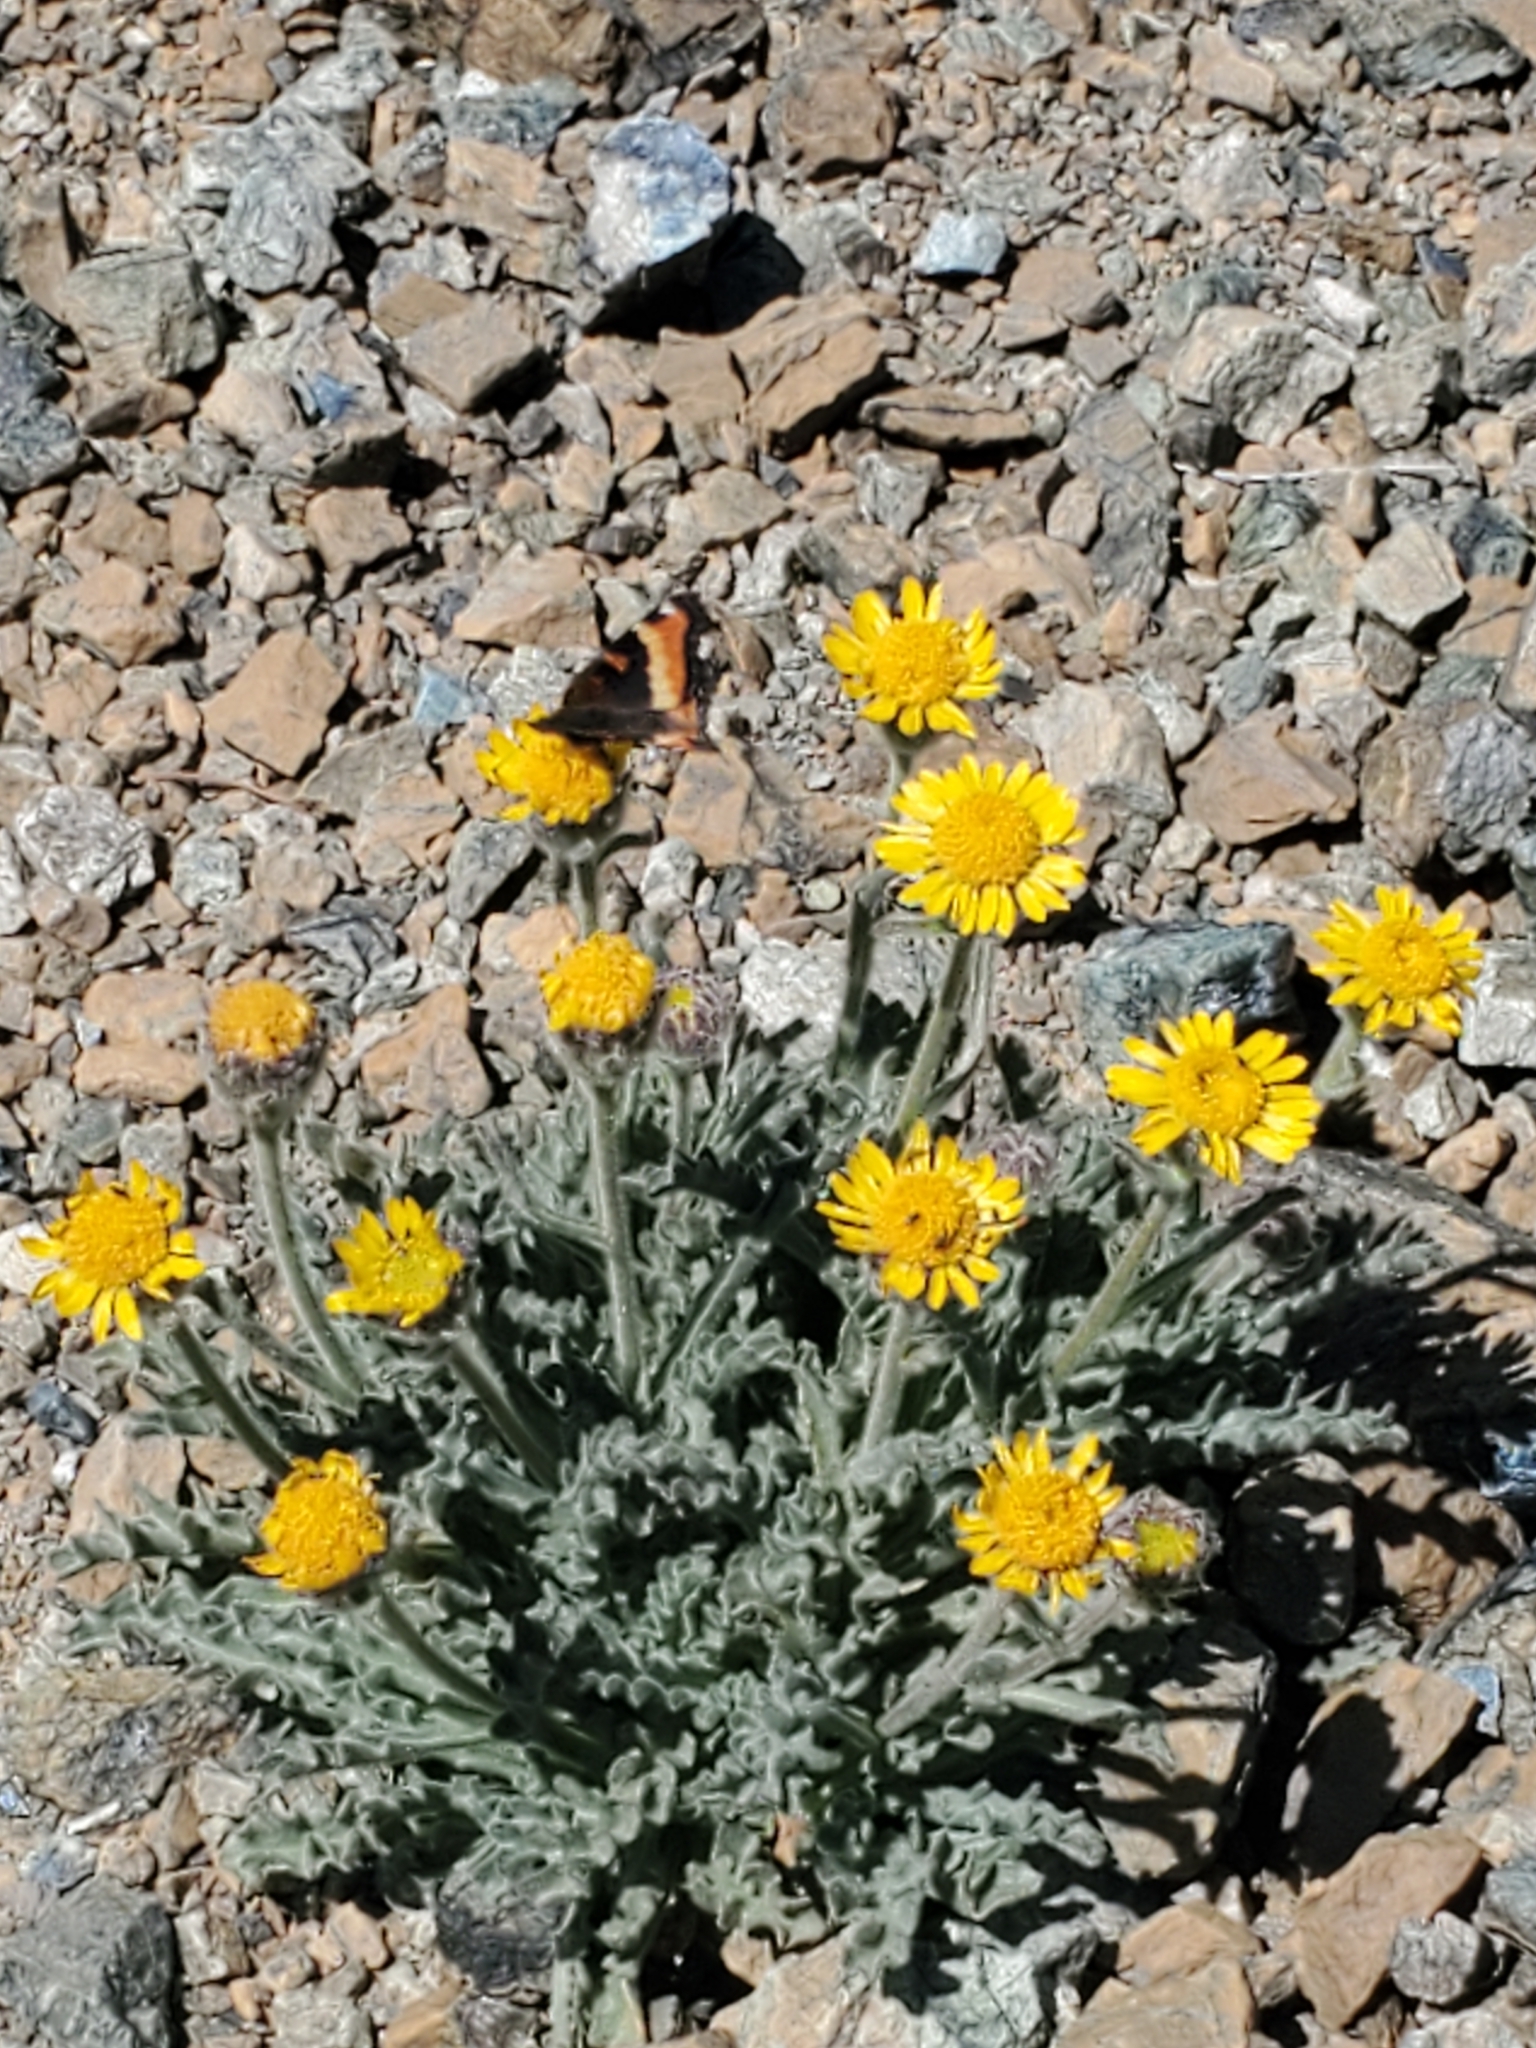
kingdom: Plantae
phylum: Tracheophyta
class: Magnoliopsida
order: Asterales
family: Asteraceae
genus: Hulsea
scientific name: Hulsea nana
